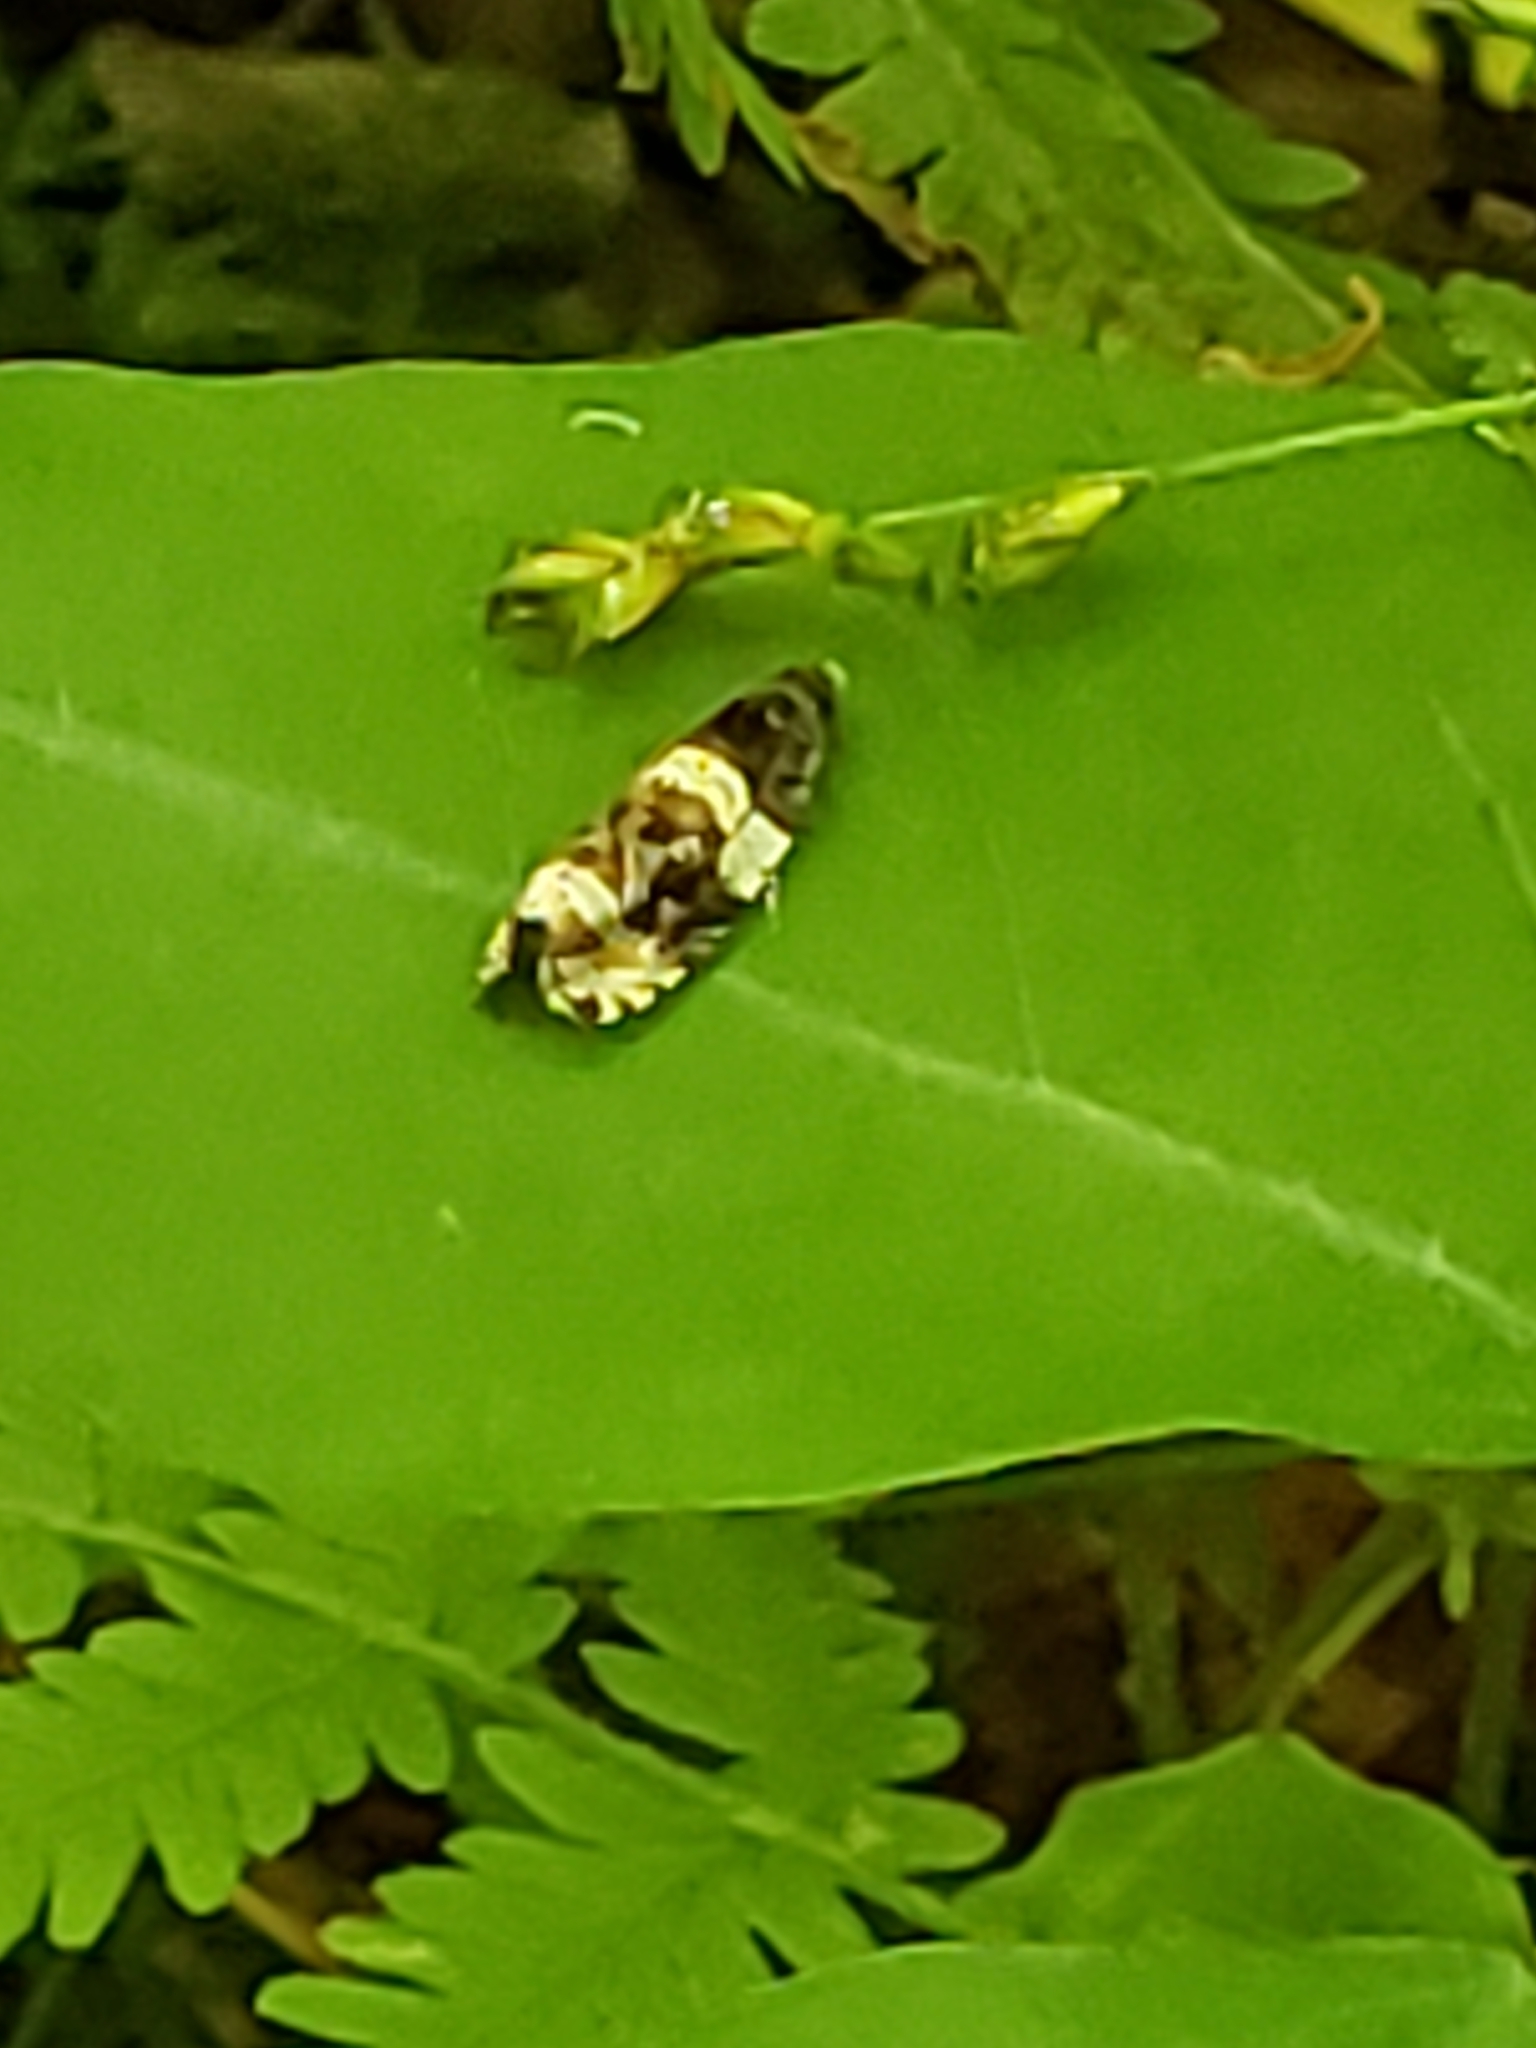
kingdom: Animalia
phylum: Arthropoda
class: Insecta
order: Lepidoptera
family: Tortricidae
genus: Olethreutes
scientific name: Olethreutes fasciatana
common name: Banded olethreutes moth
